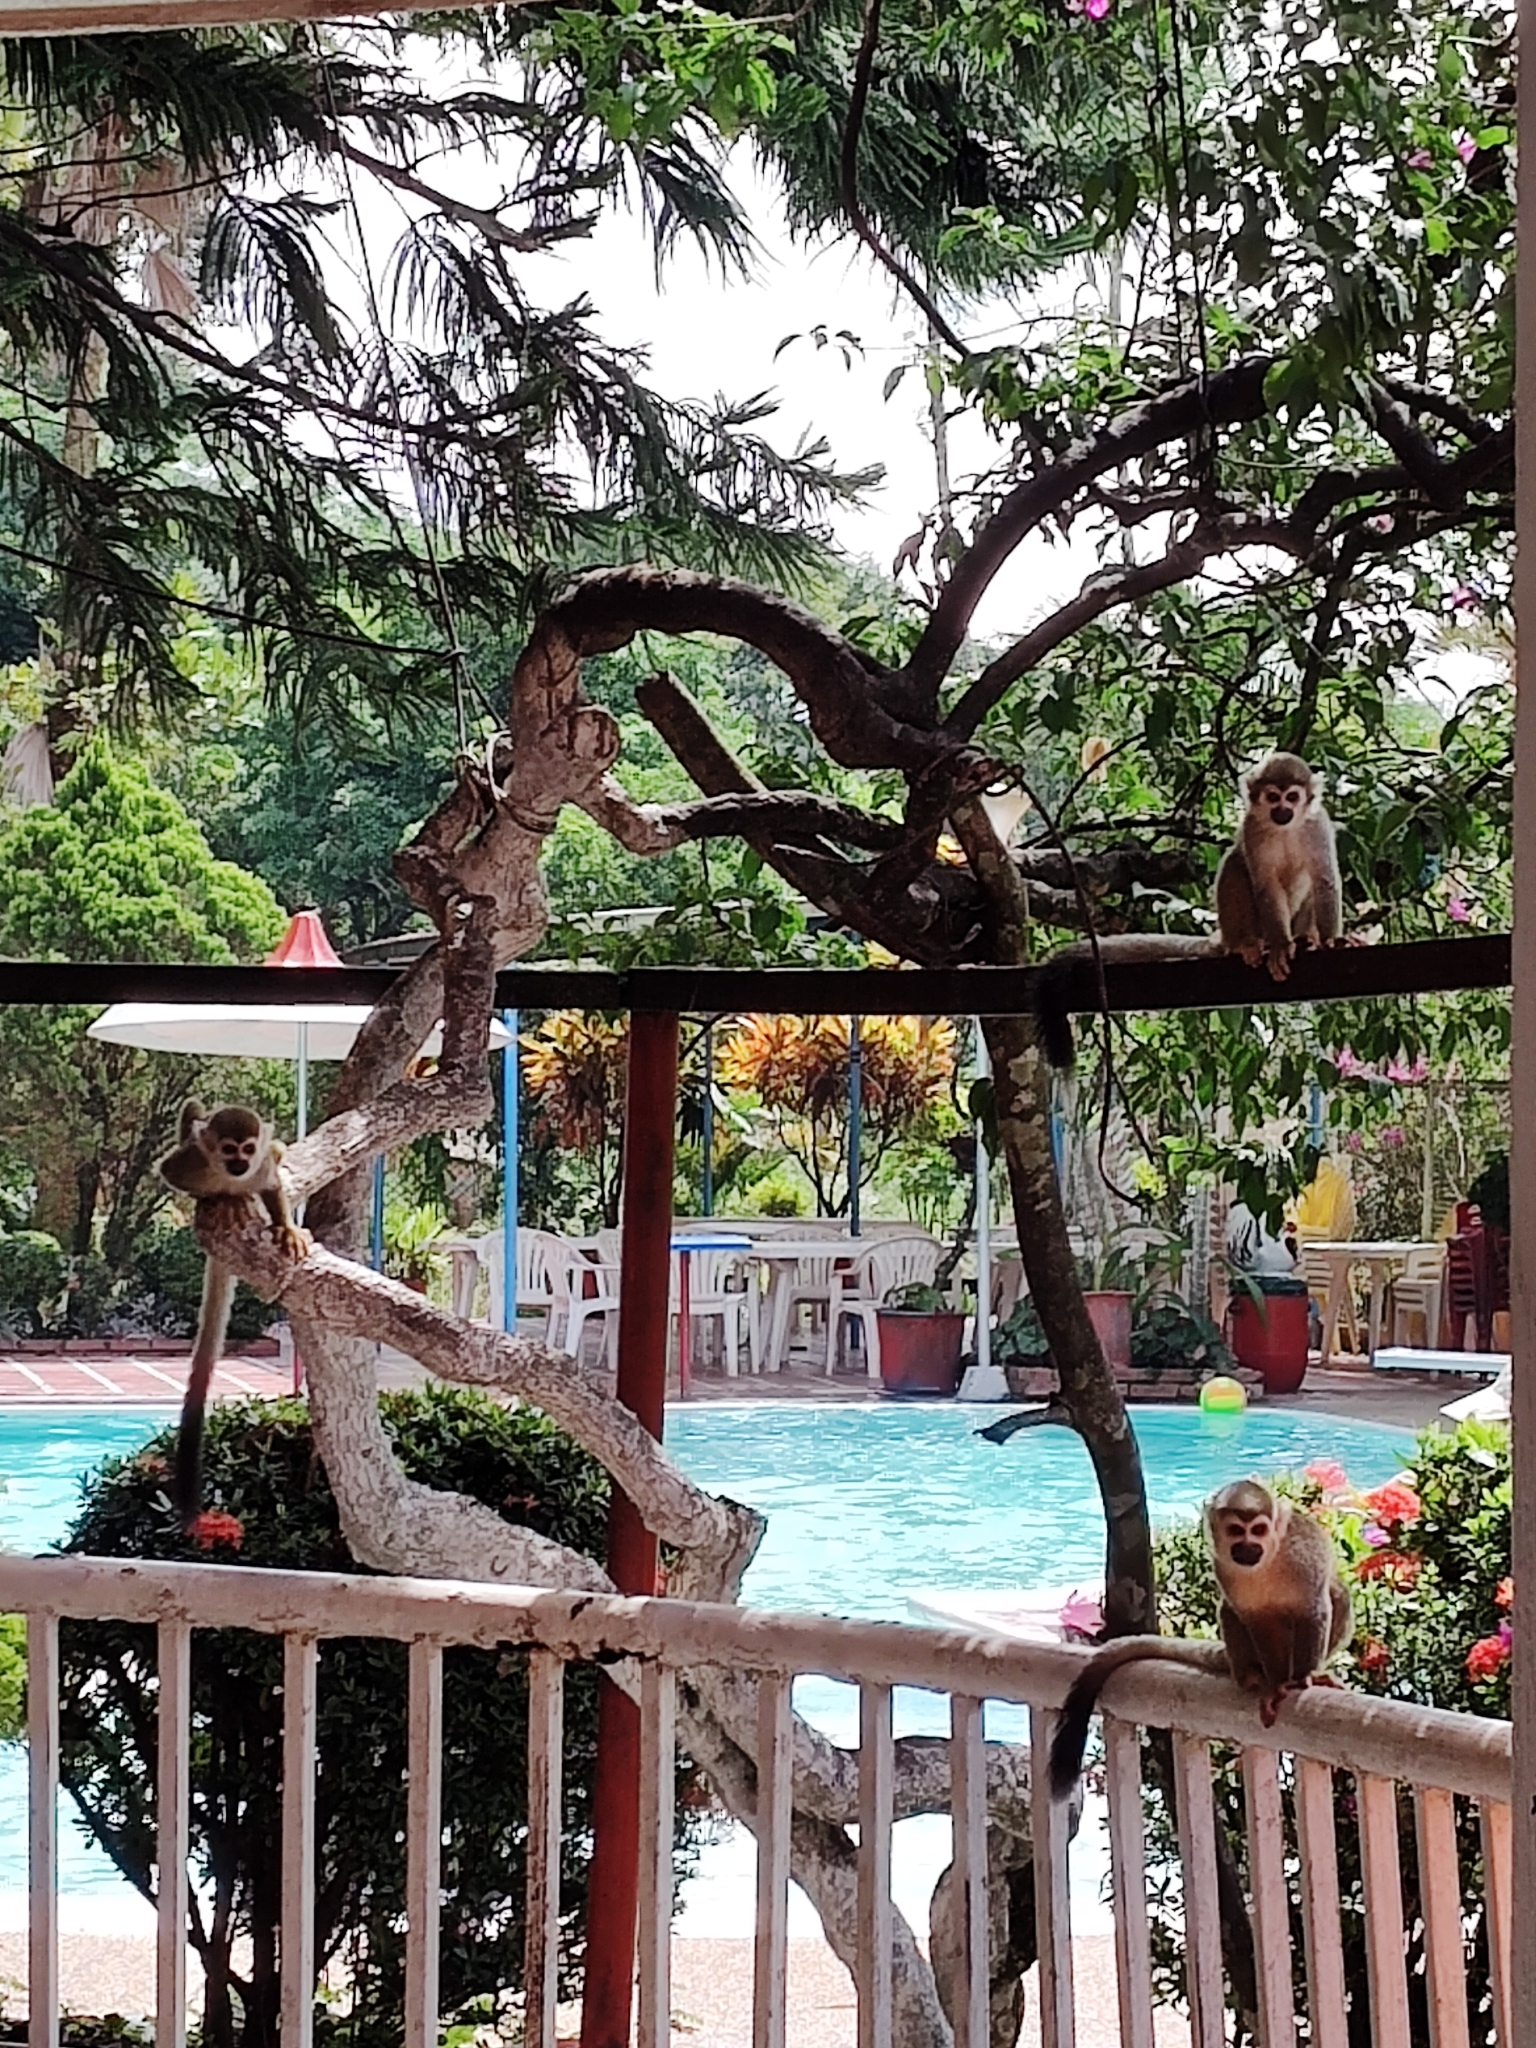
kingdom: Animalia
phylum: Chordata
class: Mammalia
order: Primates
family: Cebidae
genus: Saimiri
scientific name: Saimiri cassiquiarensis
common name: Humboldt’s squirrel monkey
